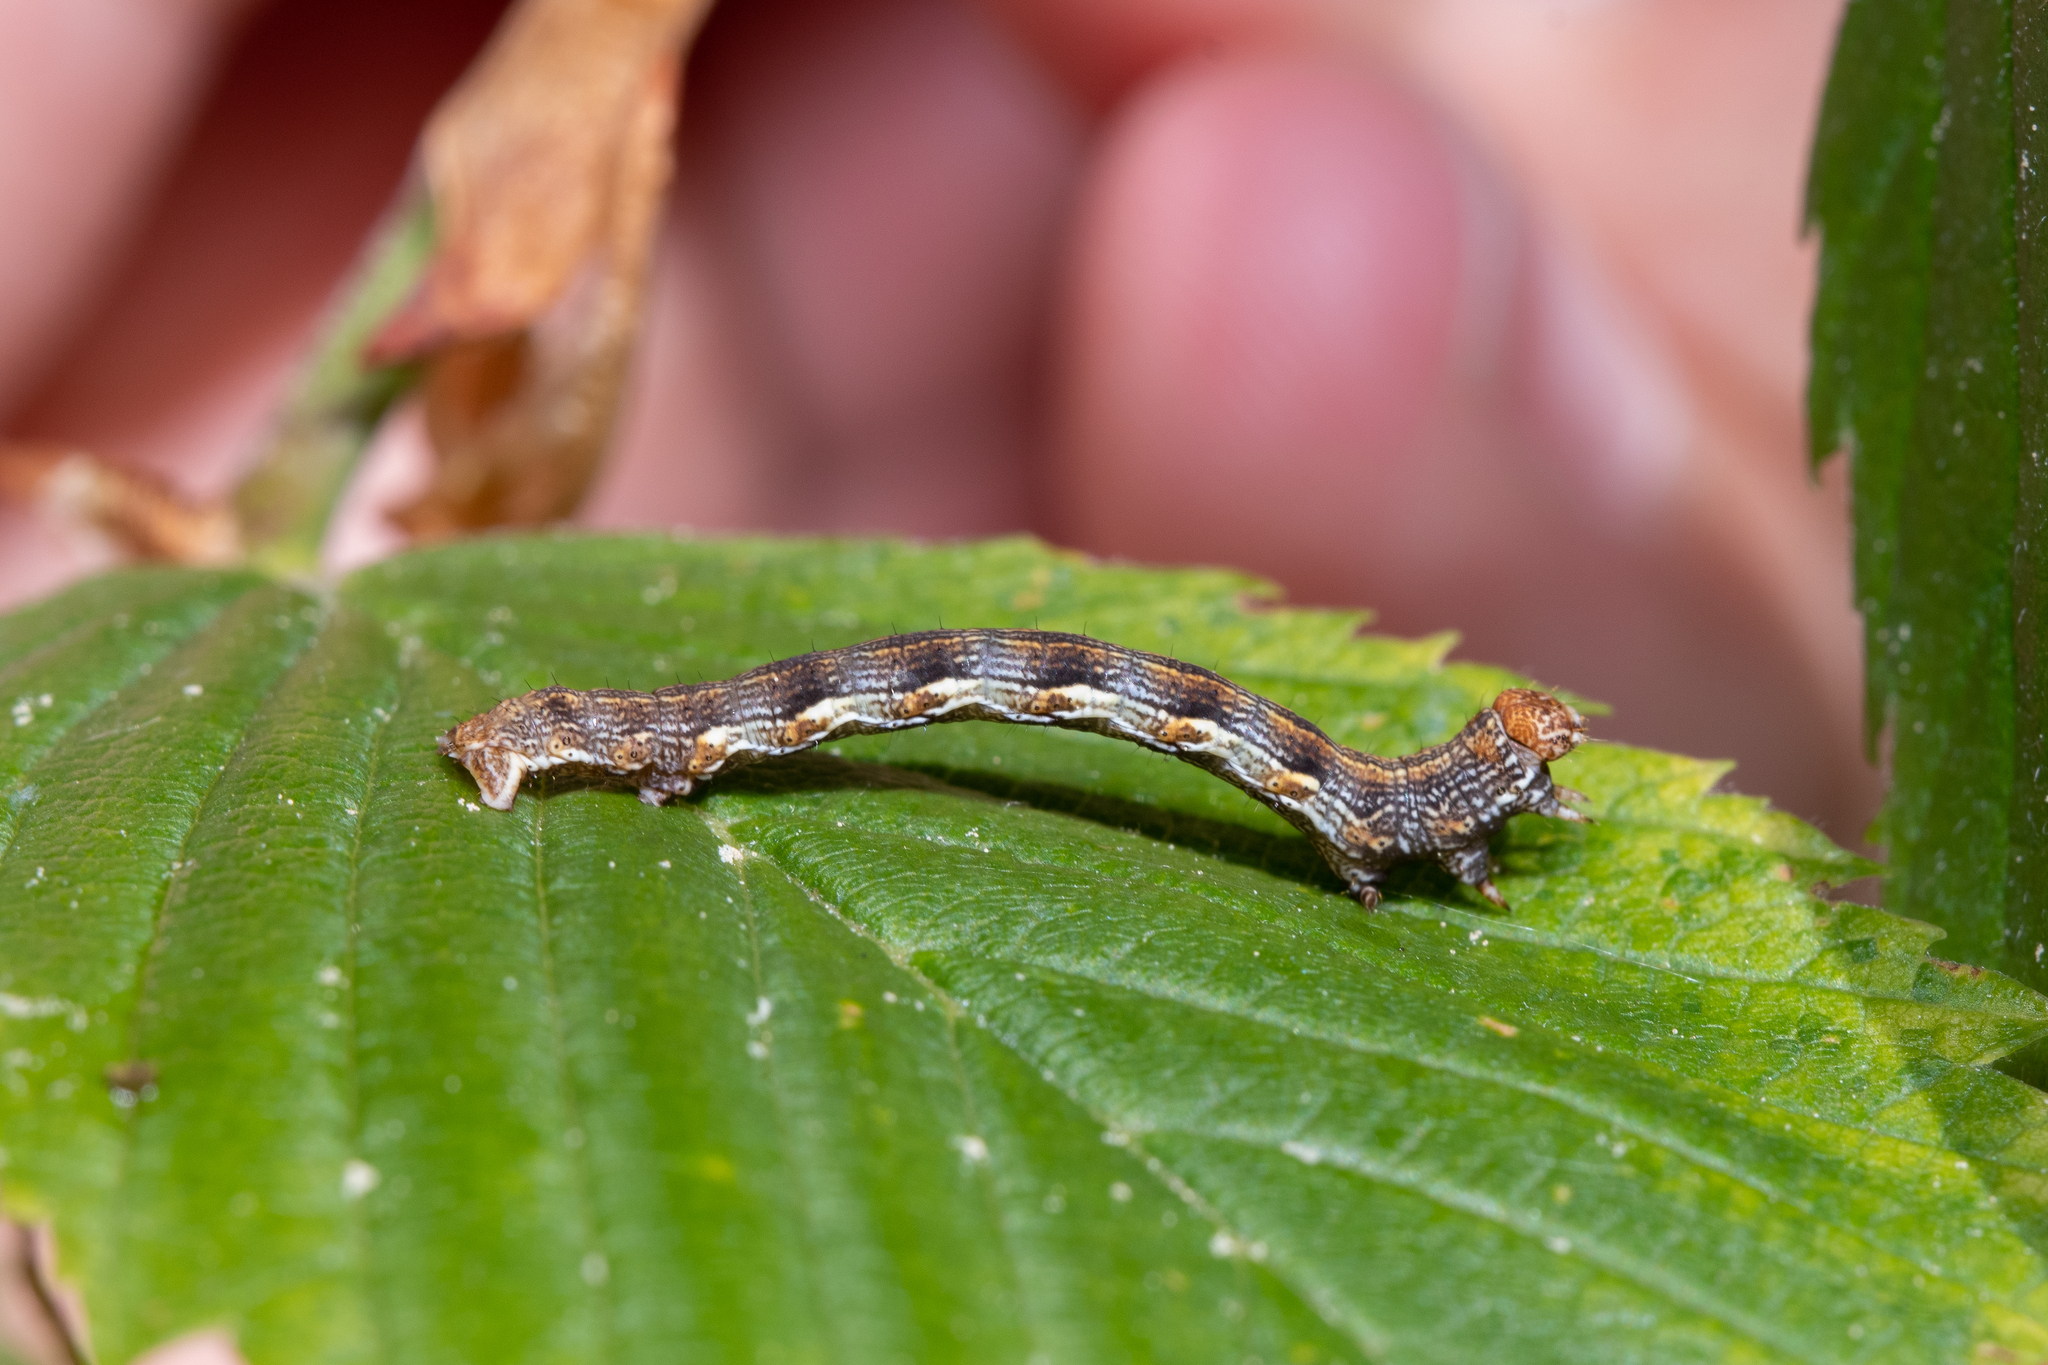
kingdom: Animalia
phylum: Arthropoda
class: Insecta
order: Lepidoptera
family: Geometridae
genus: Erannis
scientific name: Erannis defoliaria
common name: Mottled umber
